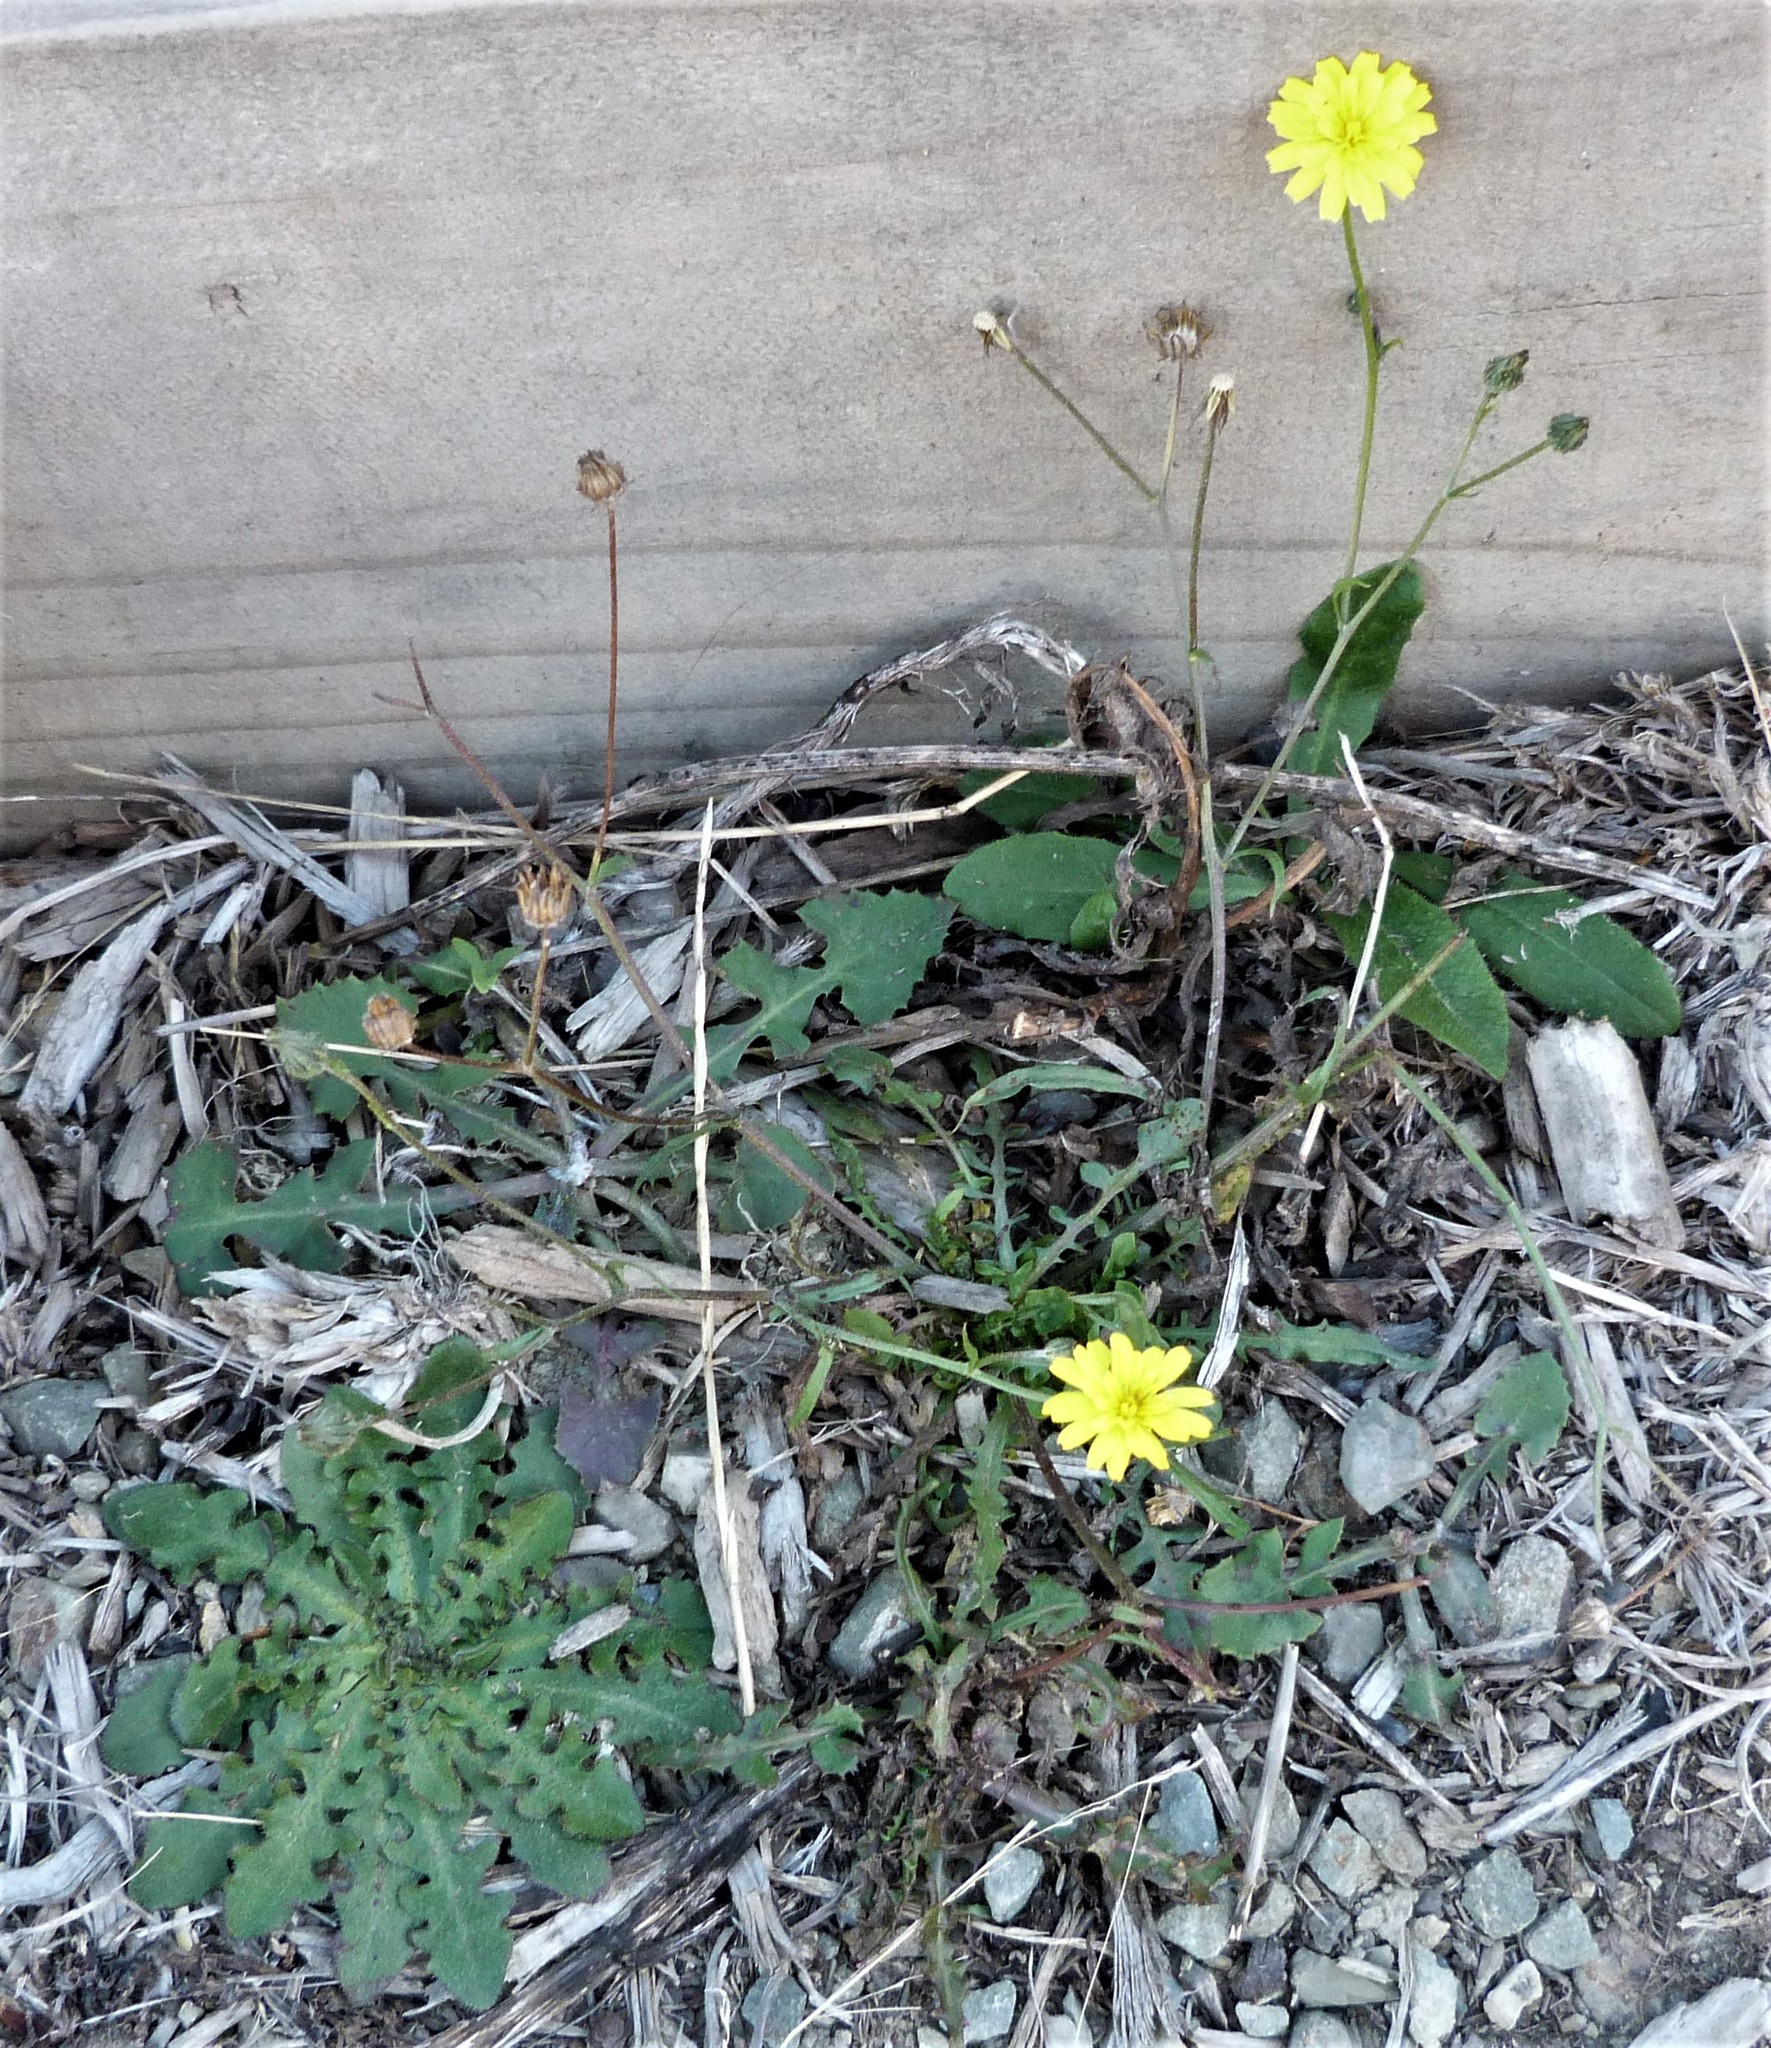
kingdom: Plantae
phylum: Tracheophyta
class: Magnoliopsida
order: Asterales
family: Asteraceae
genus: Sonchus
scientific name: Sonchus oleraceus
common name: Common sowthistle
